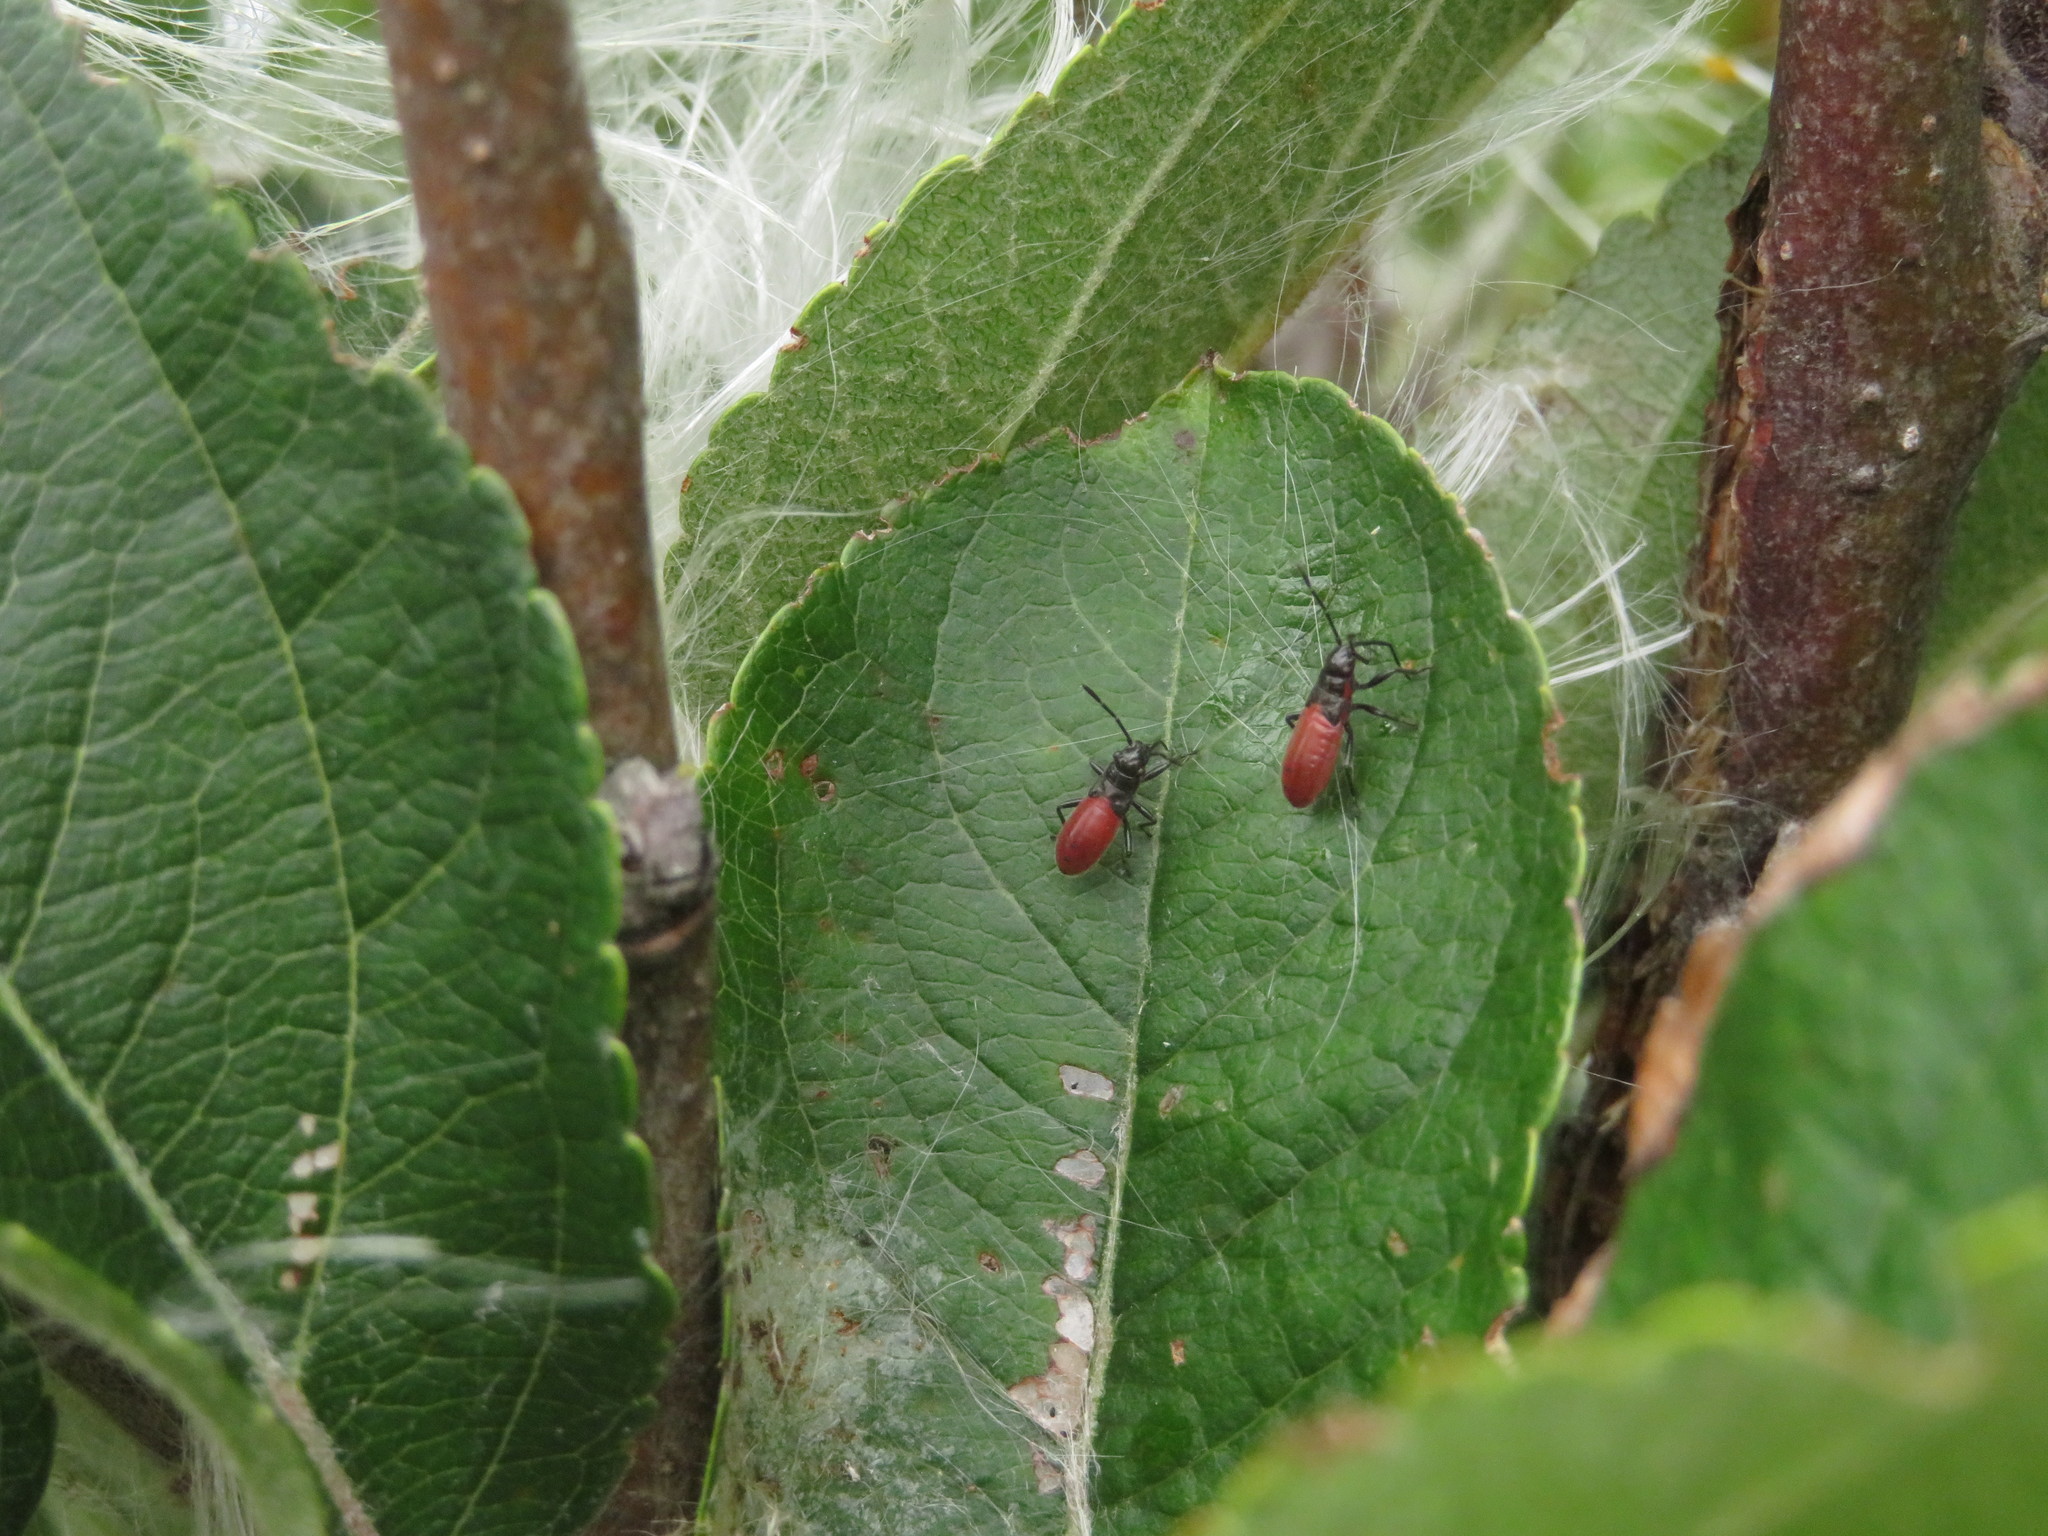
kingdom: Animalia
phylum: Arthropoda
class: Insecta
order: Hemiptera
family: Lygaeidae
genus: Arocatus
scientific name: Arocatus rusticus
